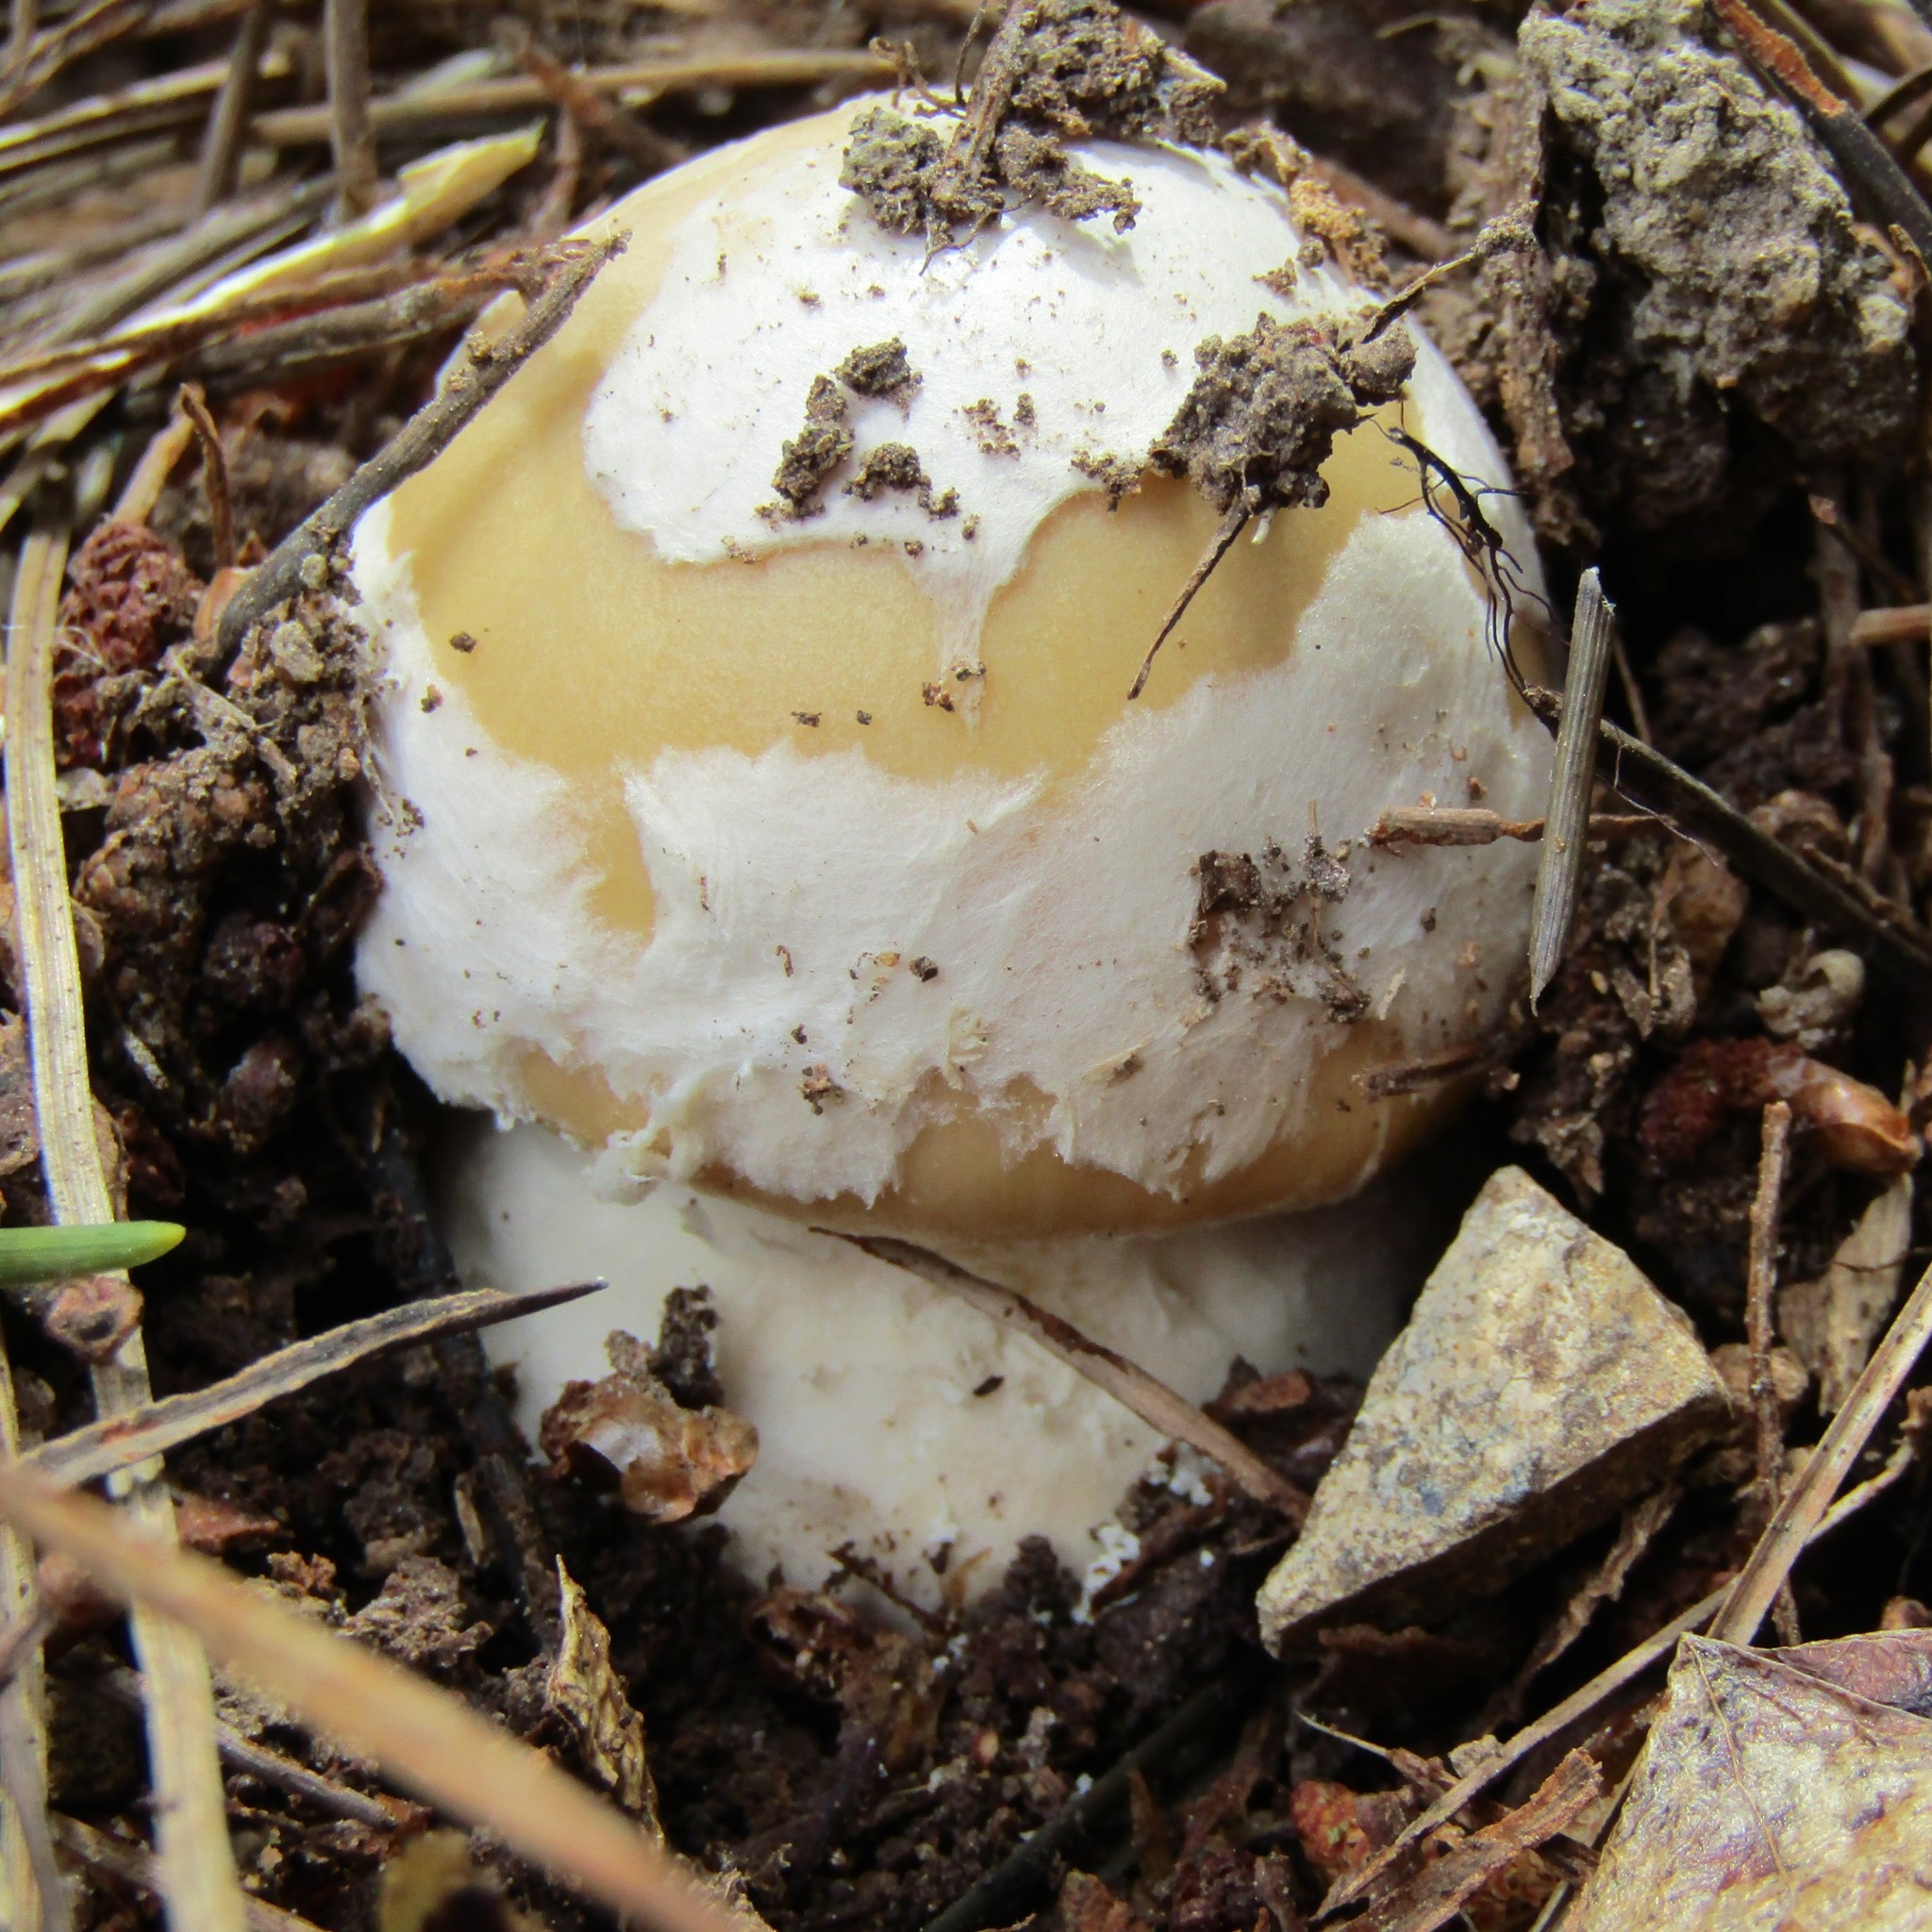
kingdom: Fungi
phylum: Basidiomycota
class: Agaricomycetes
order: Agaricales
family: Amanitaceae
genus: Amanita
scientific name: Amanita gemmata
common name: Jewelled amanita
